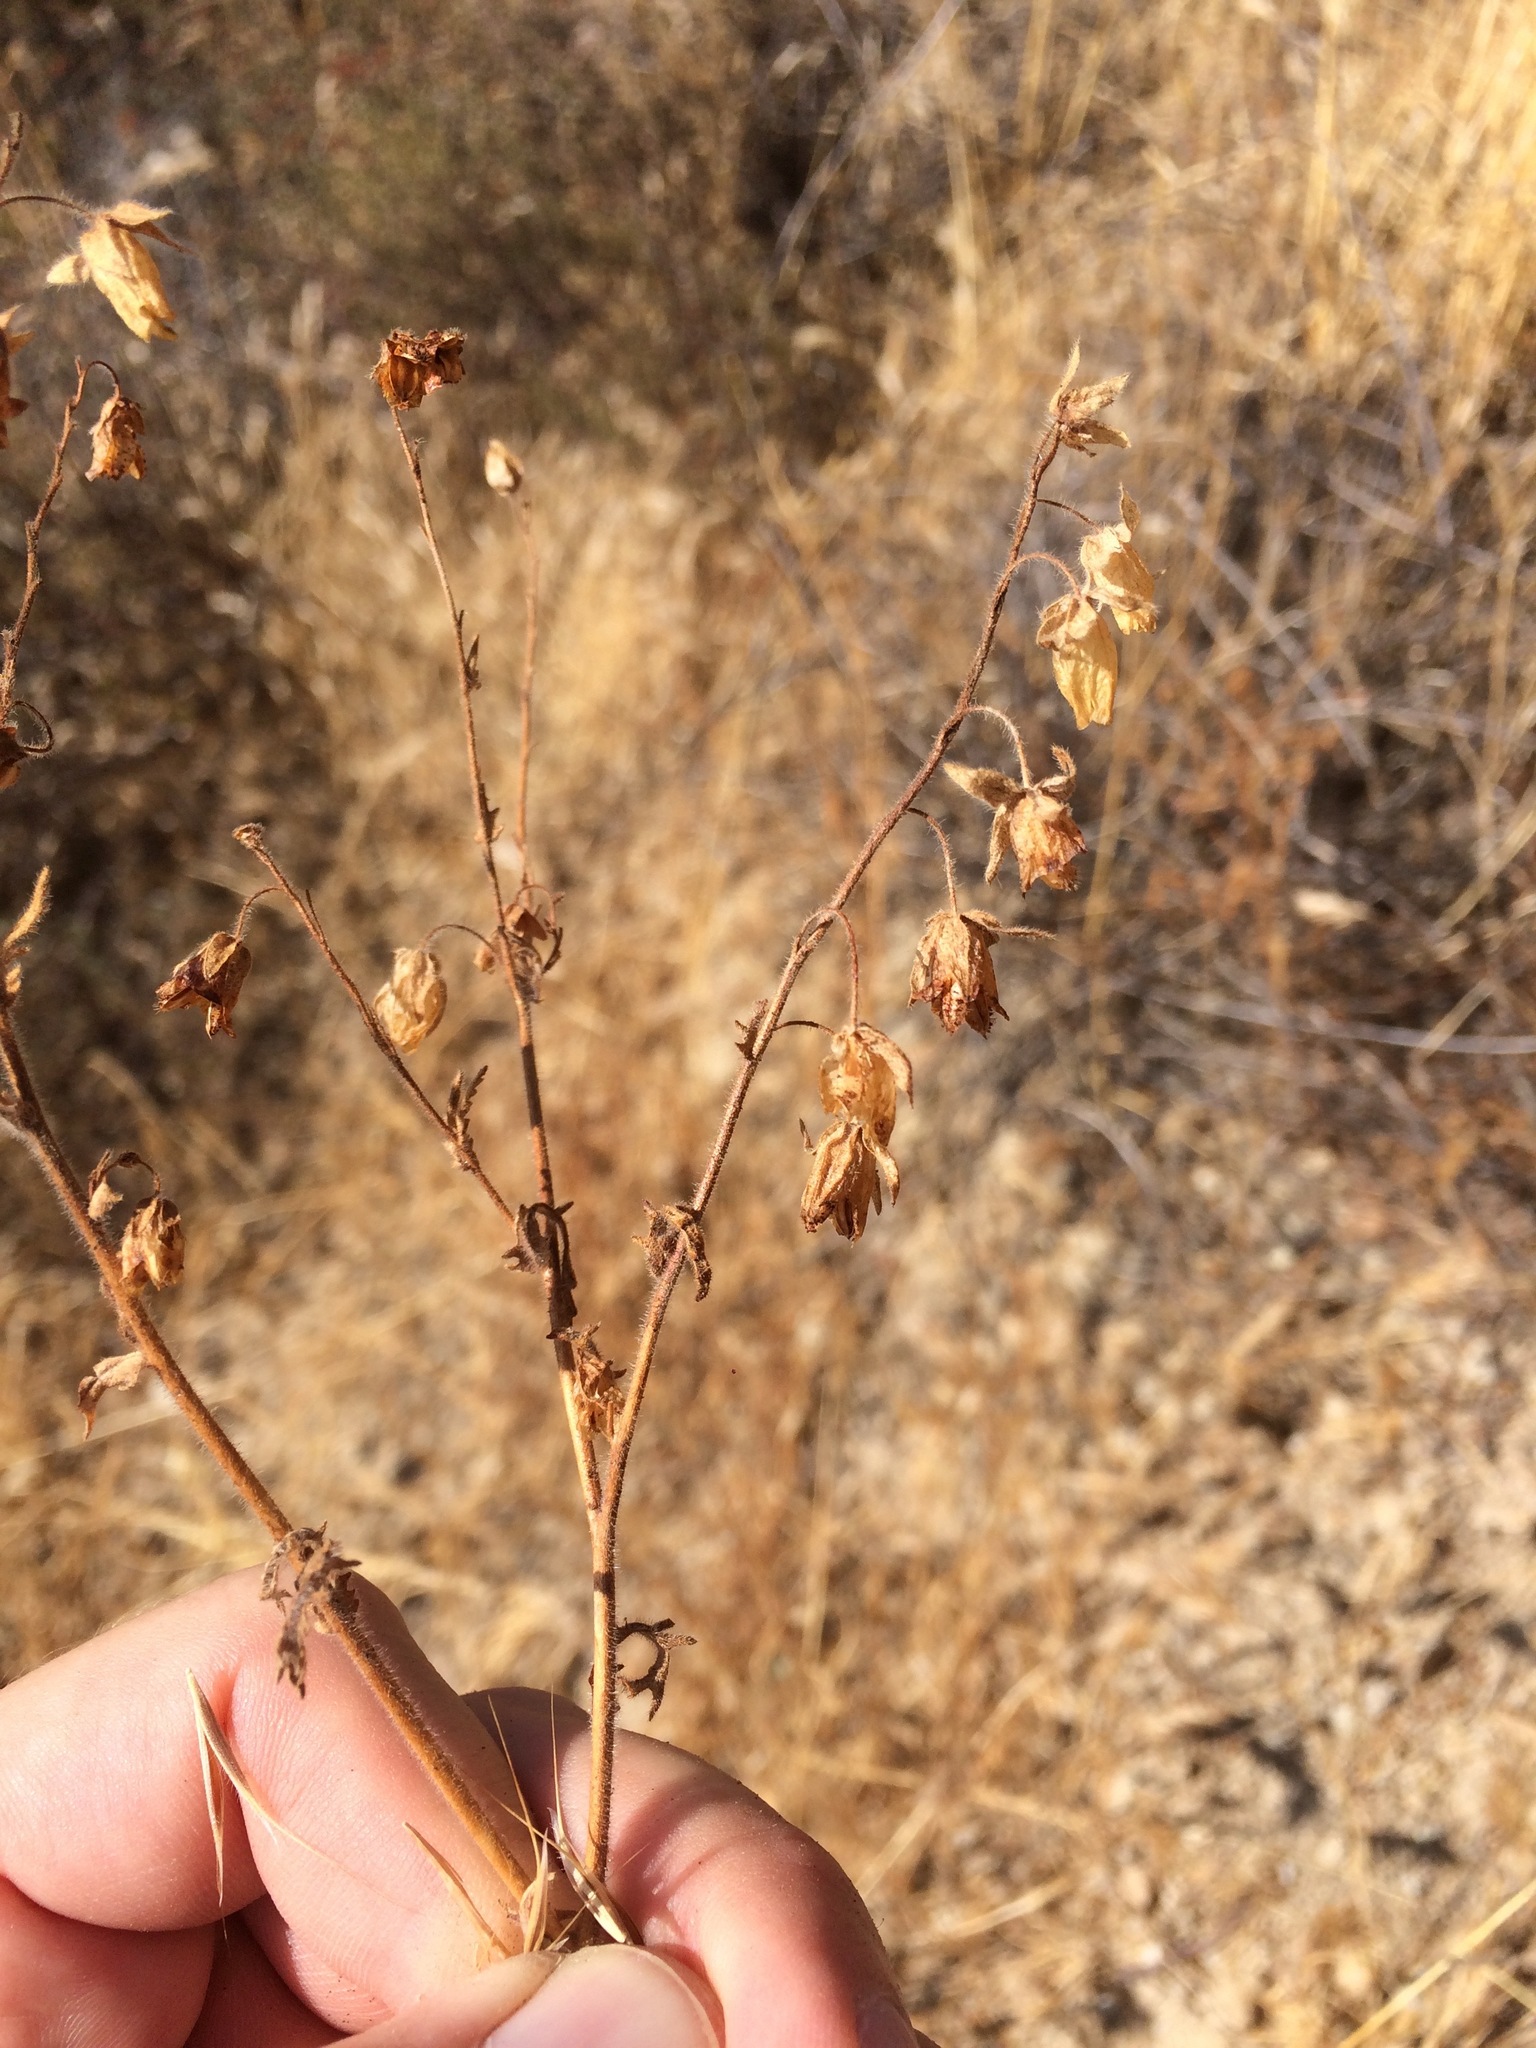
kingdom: Plantae
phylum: Tracheophyta
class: Magnoliopsida
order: Boraginales
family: Hydrophyllaceae
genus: Emmenanthe
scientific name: Emmenanthe penduliflora
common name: Whispering-bells
